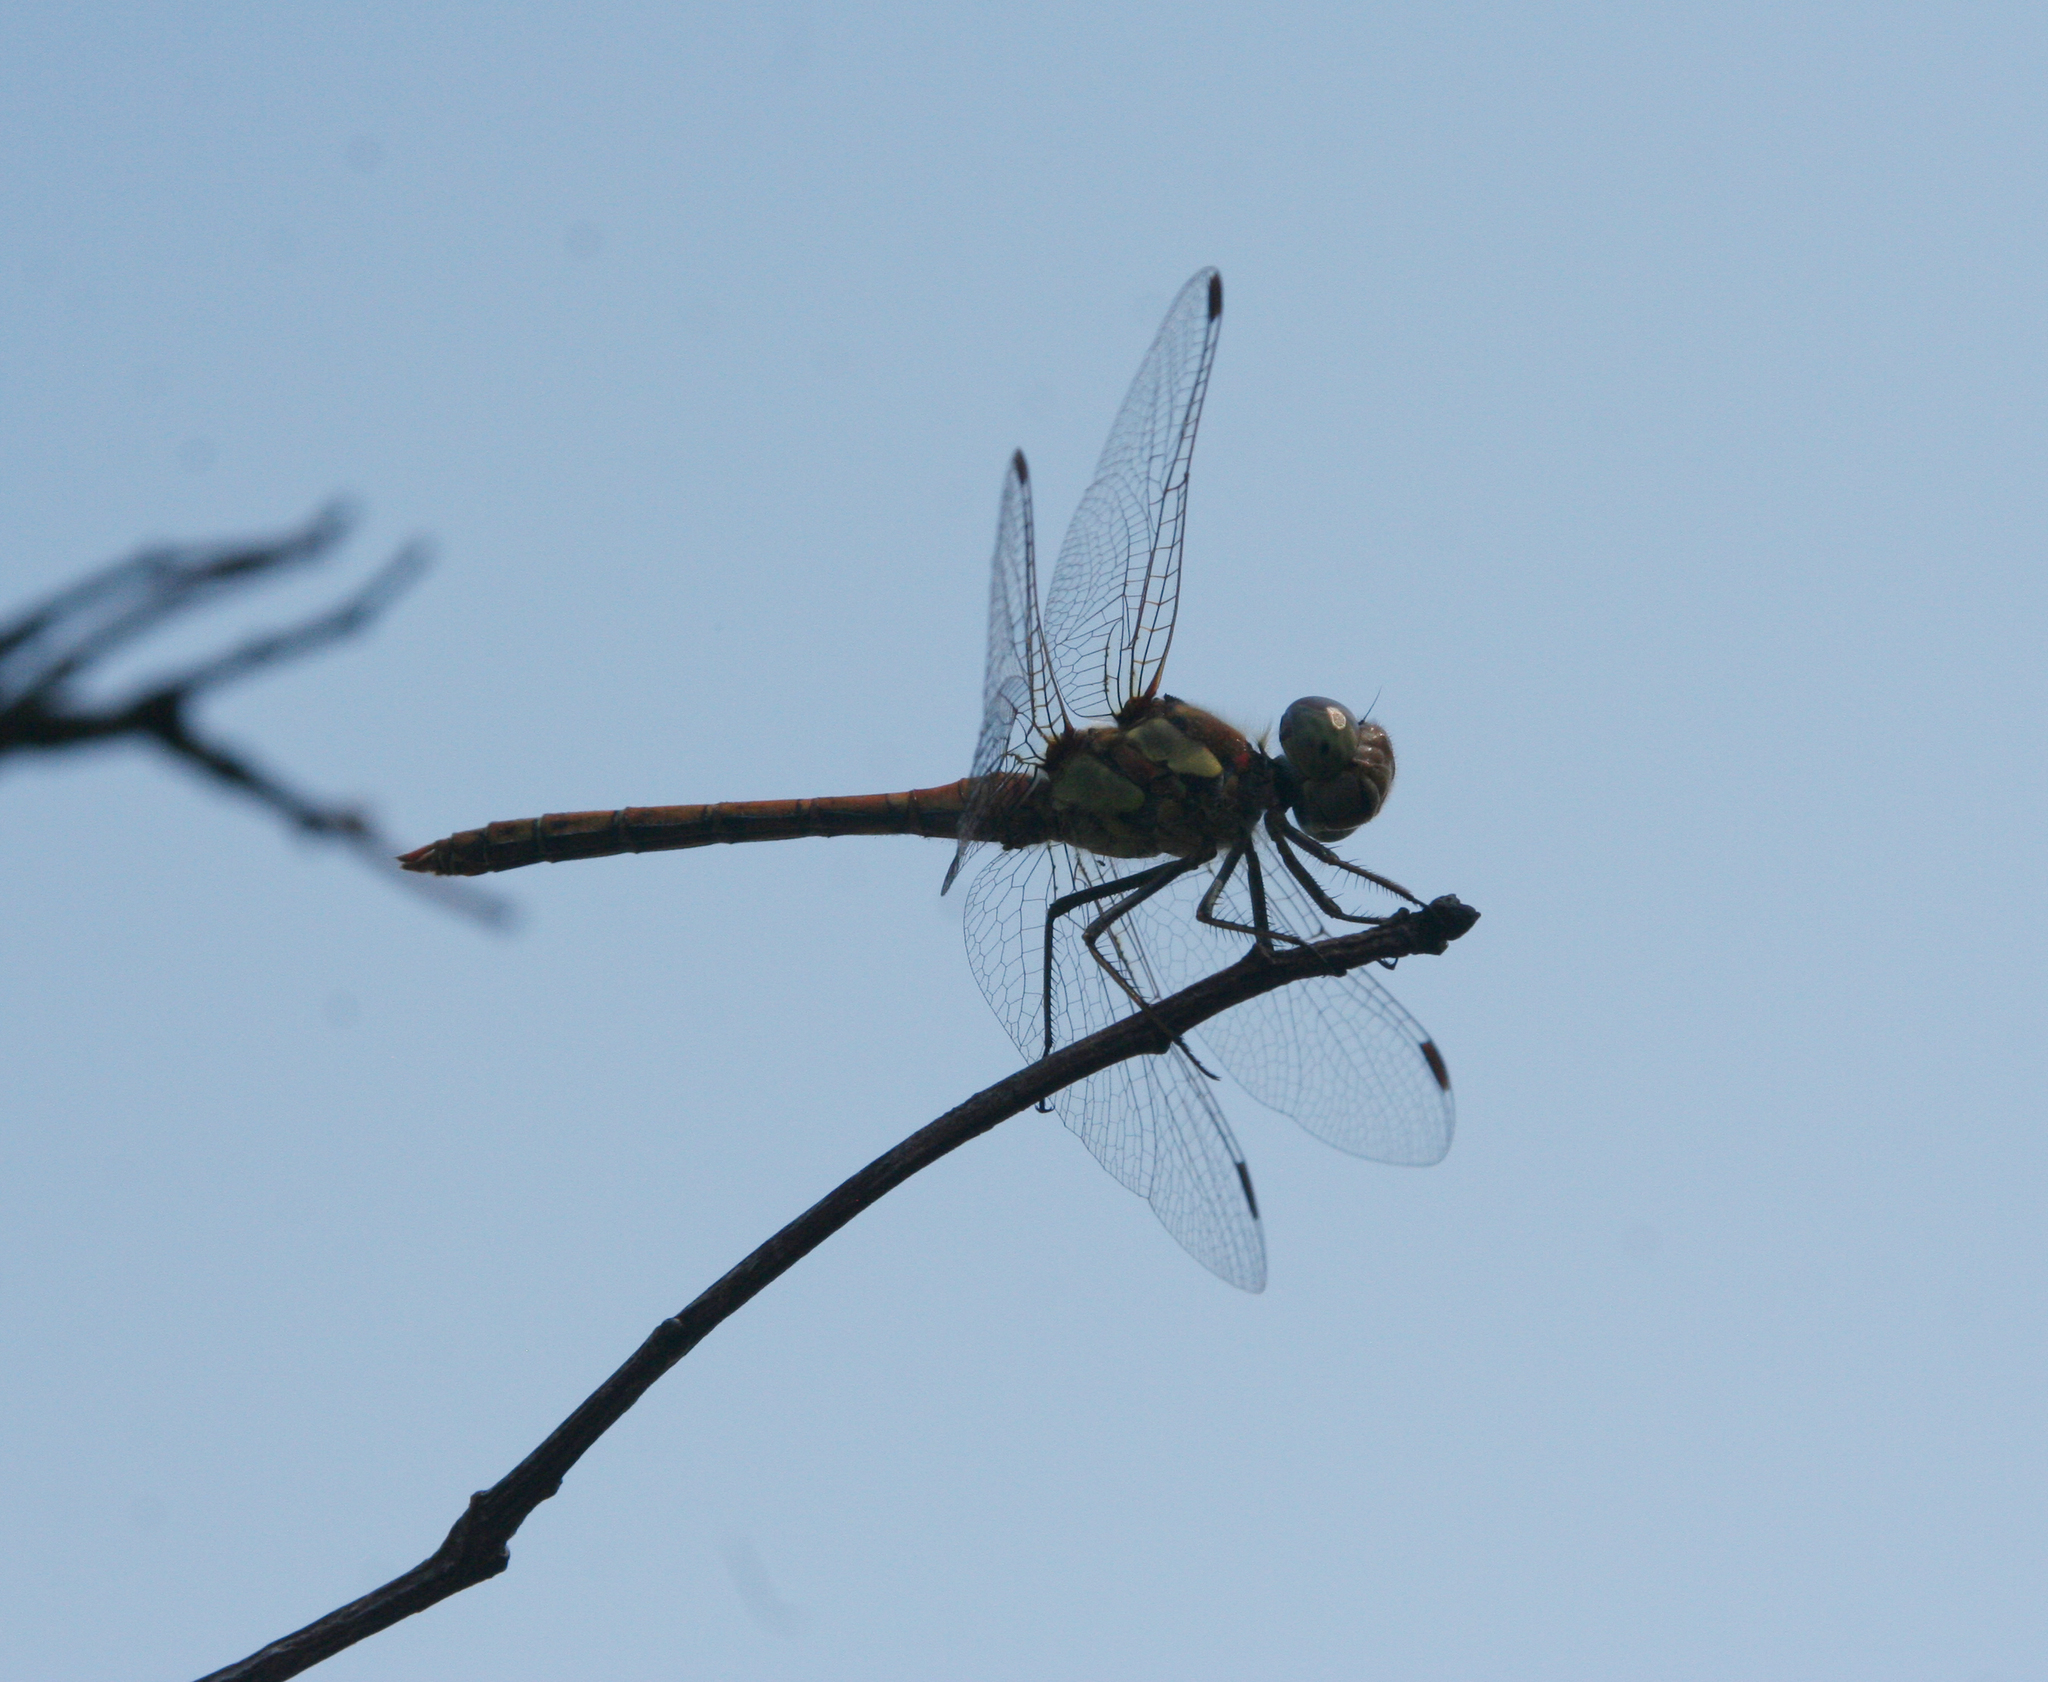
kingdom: Animalia
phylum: Arthropoda
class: Insecta
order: Odonata
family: Libellulidae
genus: Sympetrum
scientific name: Sympetrum striolatum
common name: Common darter
